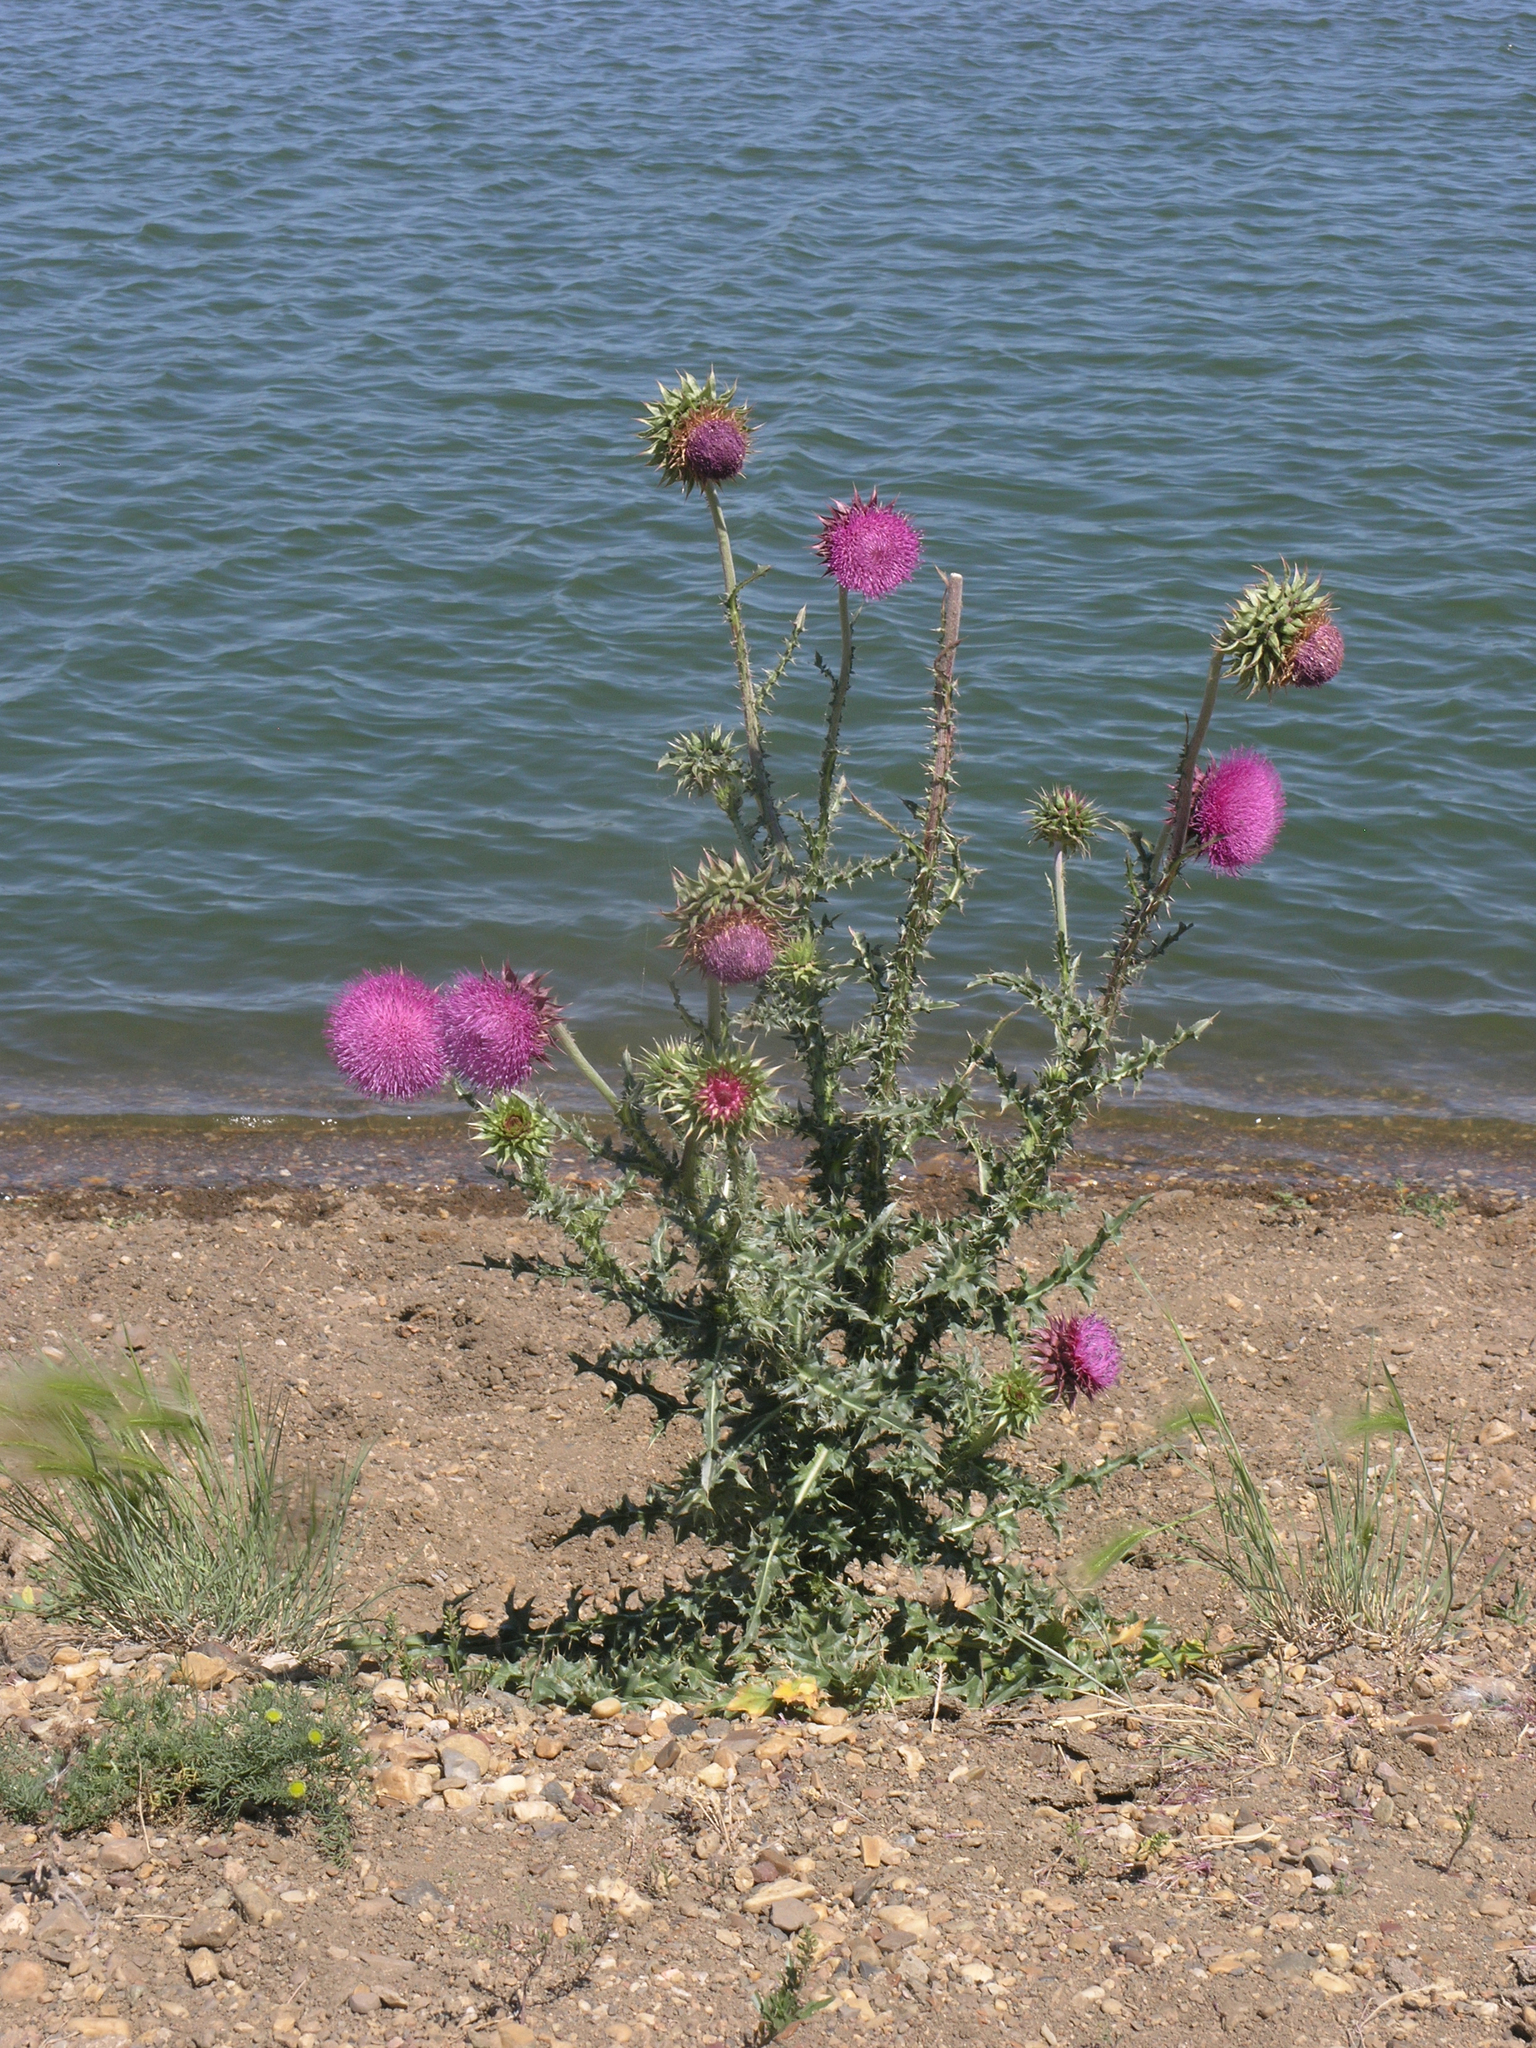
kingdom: Plantae
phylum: Tracheophyta
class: Magnoliopsida
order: Asterales
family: Asteraceae
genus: Carduus
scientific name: Carduus nutans
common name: Musk thistle
